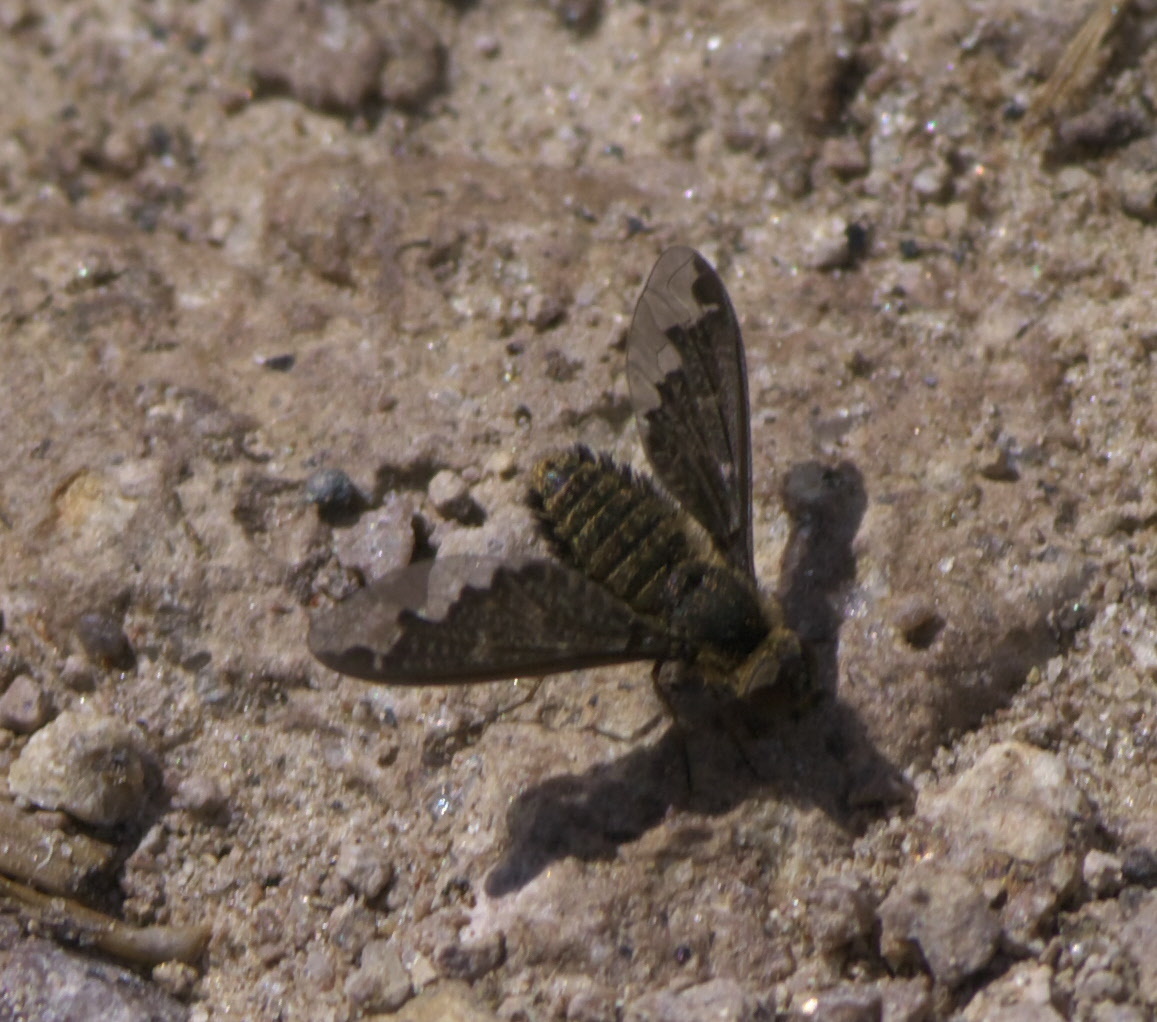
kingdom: Animalia
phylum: Arthropoda
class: Insecta
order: Diptera
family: Bombyliidae
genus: Hemipenthes
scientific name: Hemipenthes sinuosus
